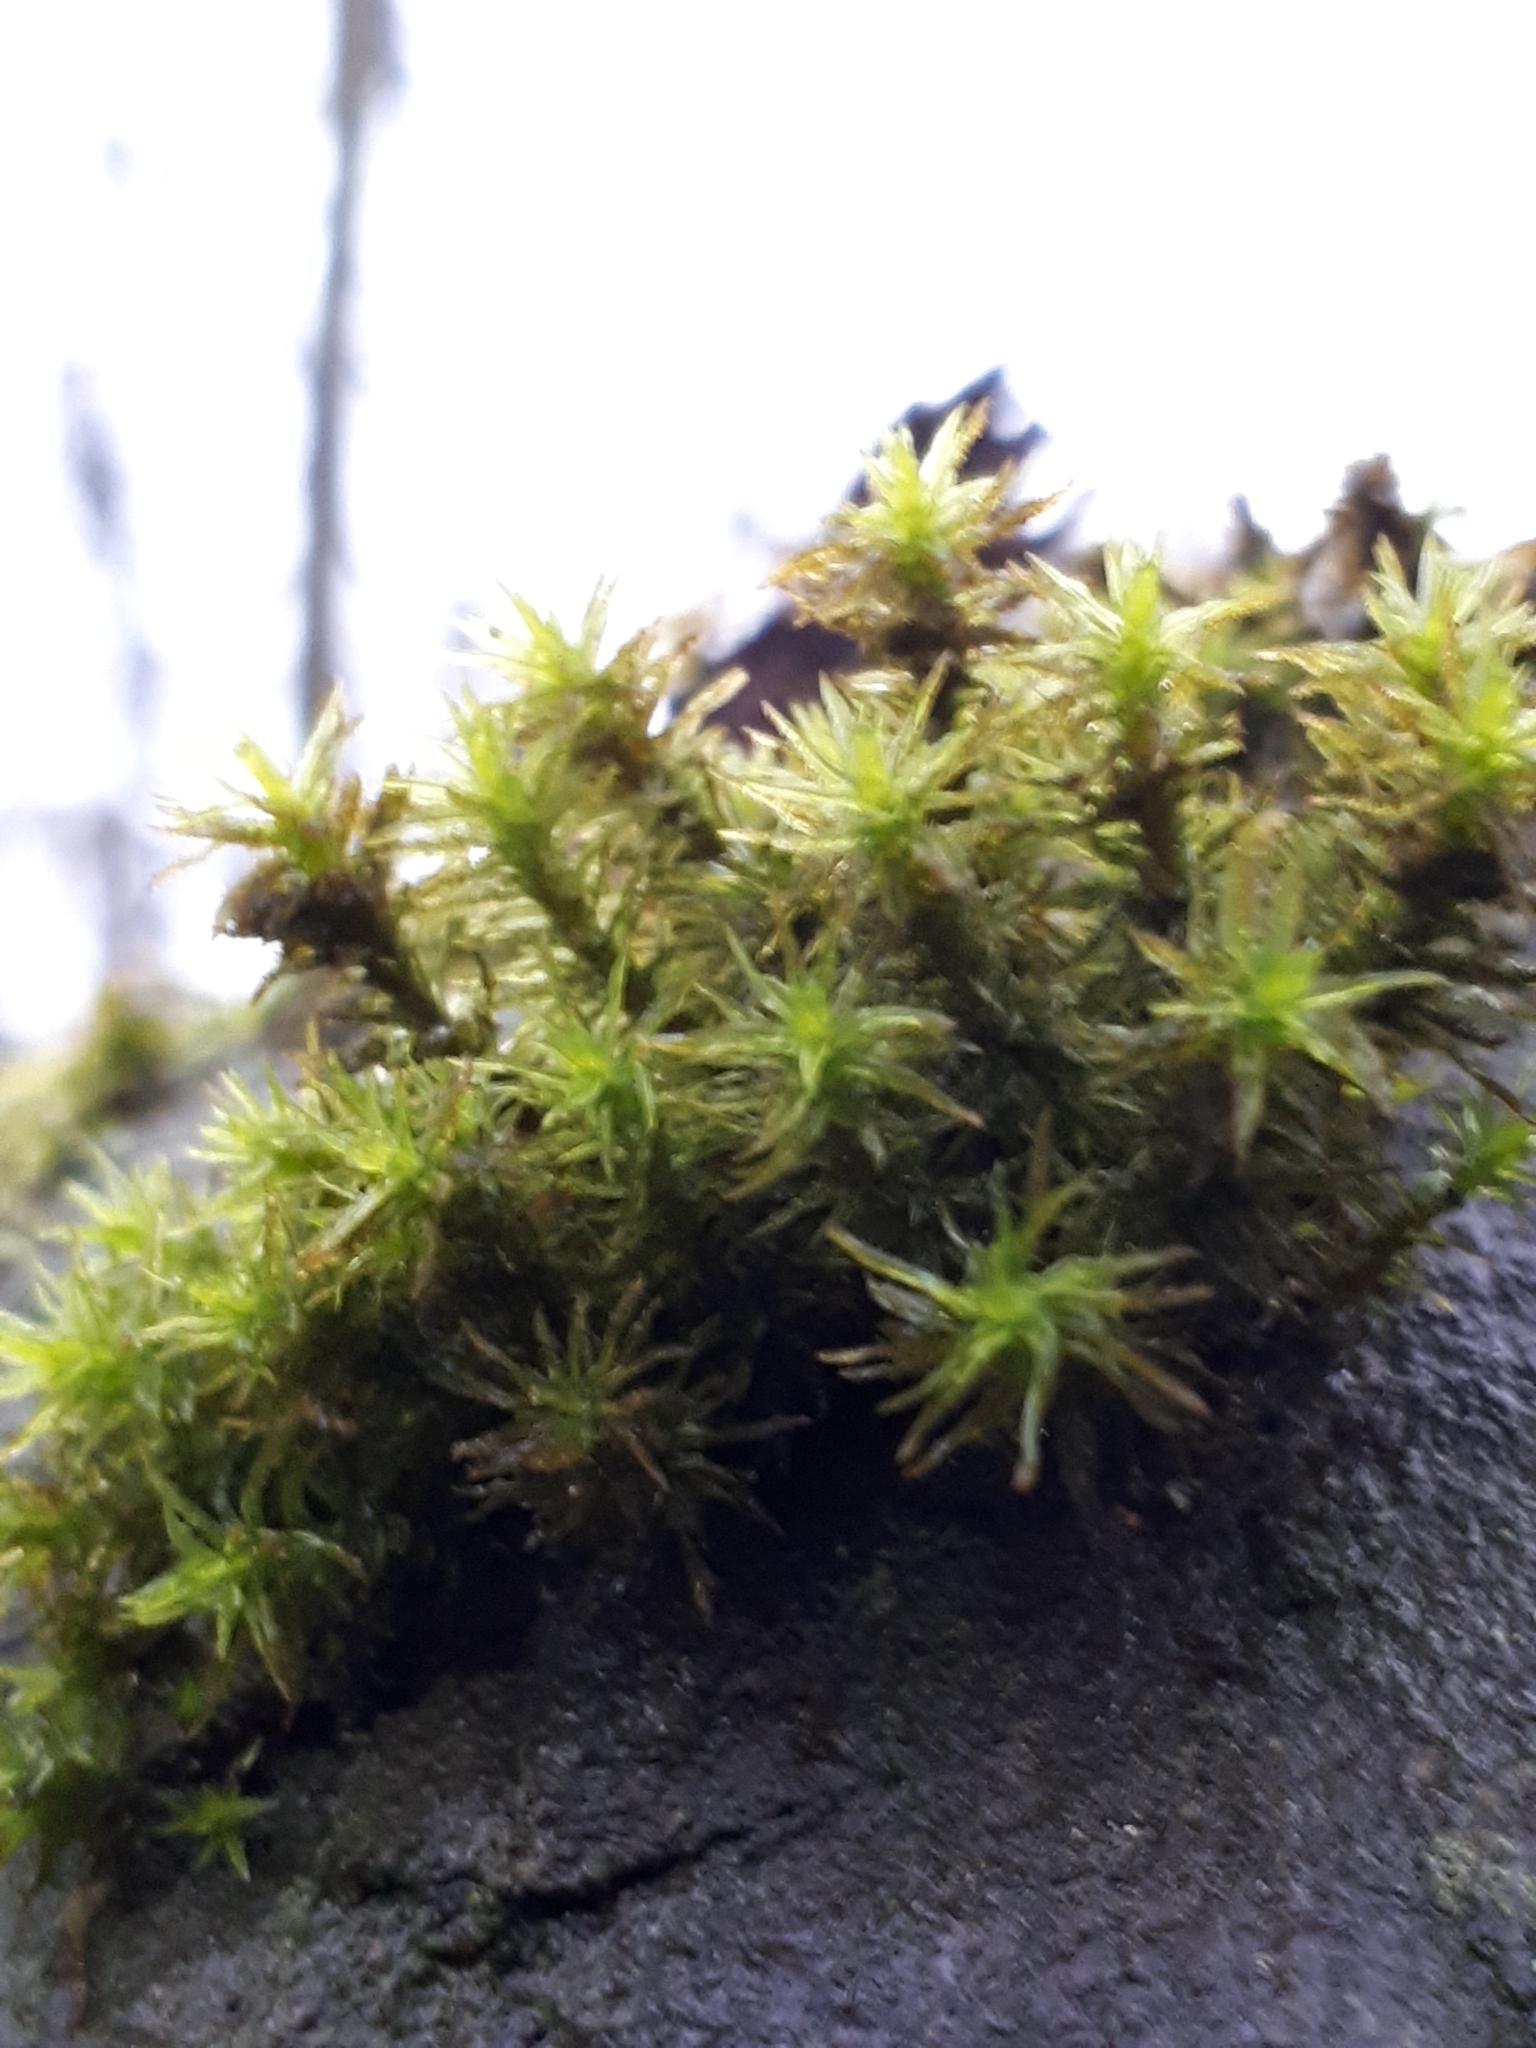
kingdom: Plantae
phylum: Bryophyta
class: Bryopsida
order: Orthotrichales
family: Orthotrichaceae
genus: Pulvigera
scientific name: Pulvigera lyellii
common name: Lyell's bristle-moss
